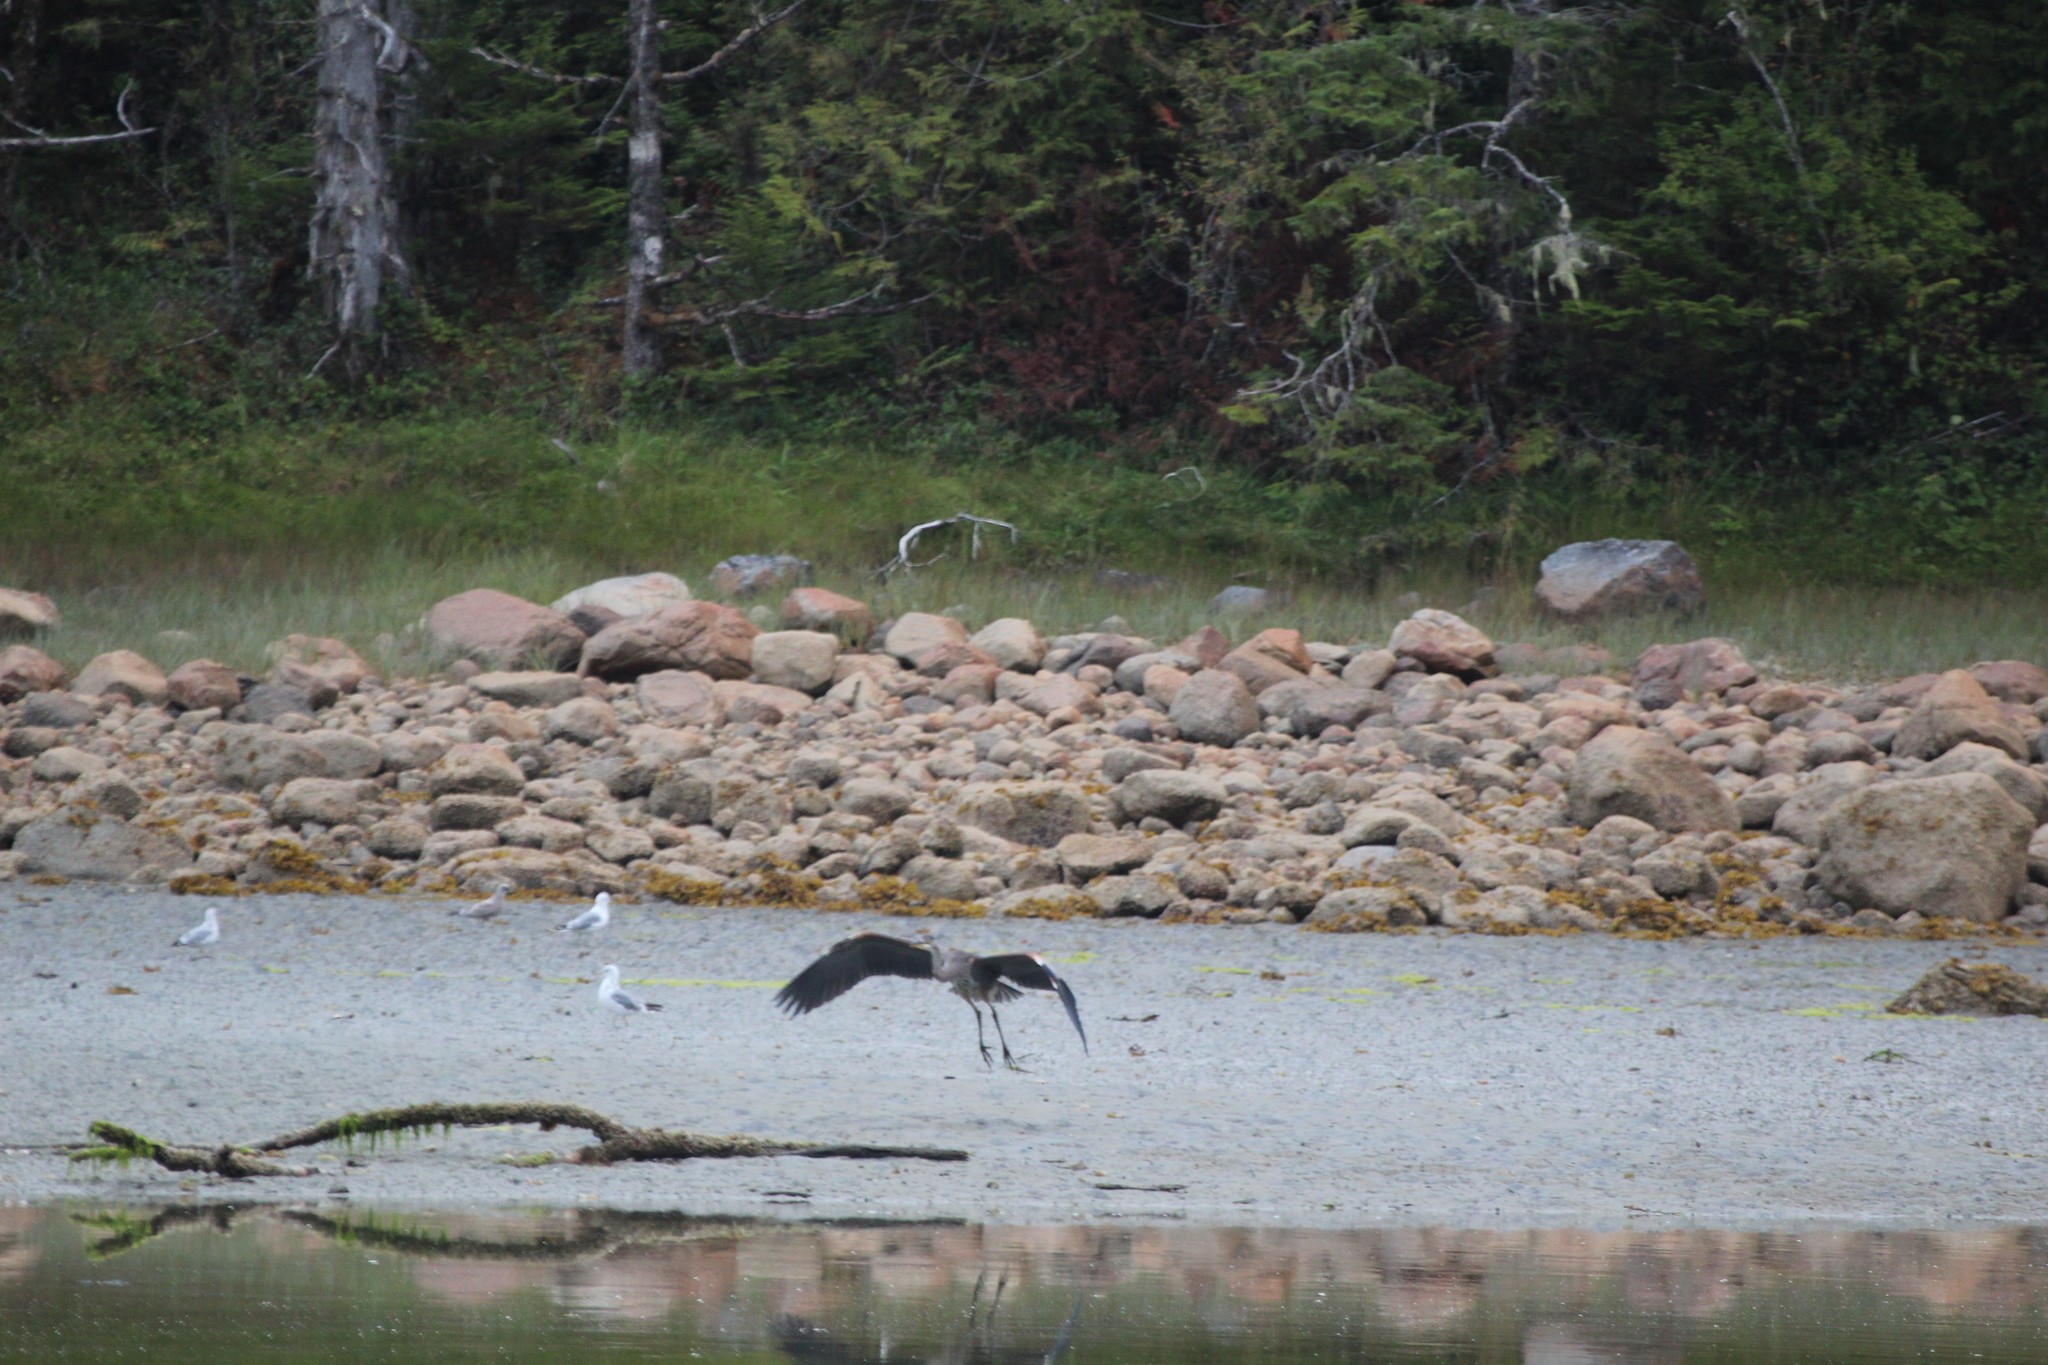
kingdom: Animalia
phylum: Chordata
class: Aves
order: Pelecaniformes
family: Ardeidae
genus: Ardea
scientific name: Ardea herodias
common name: Great blue heron
